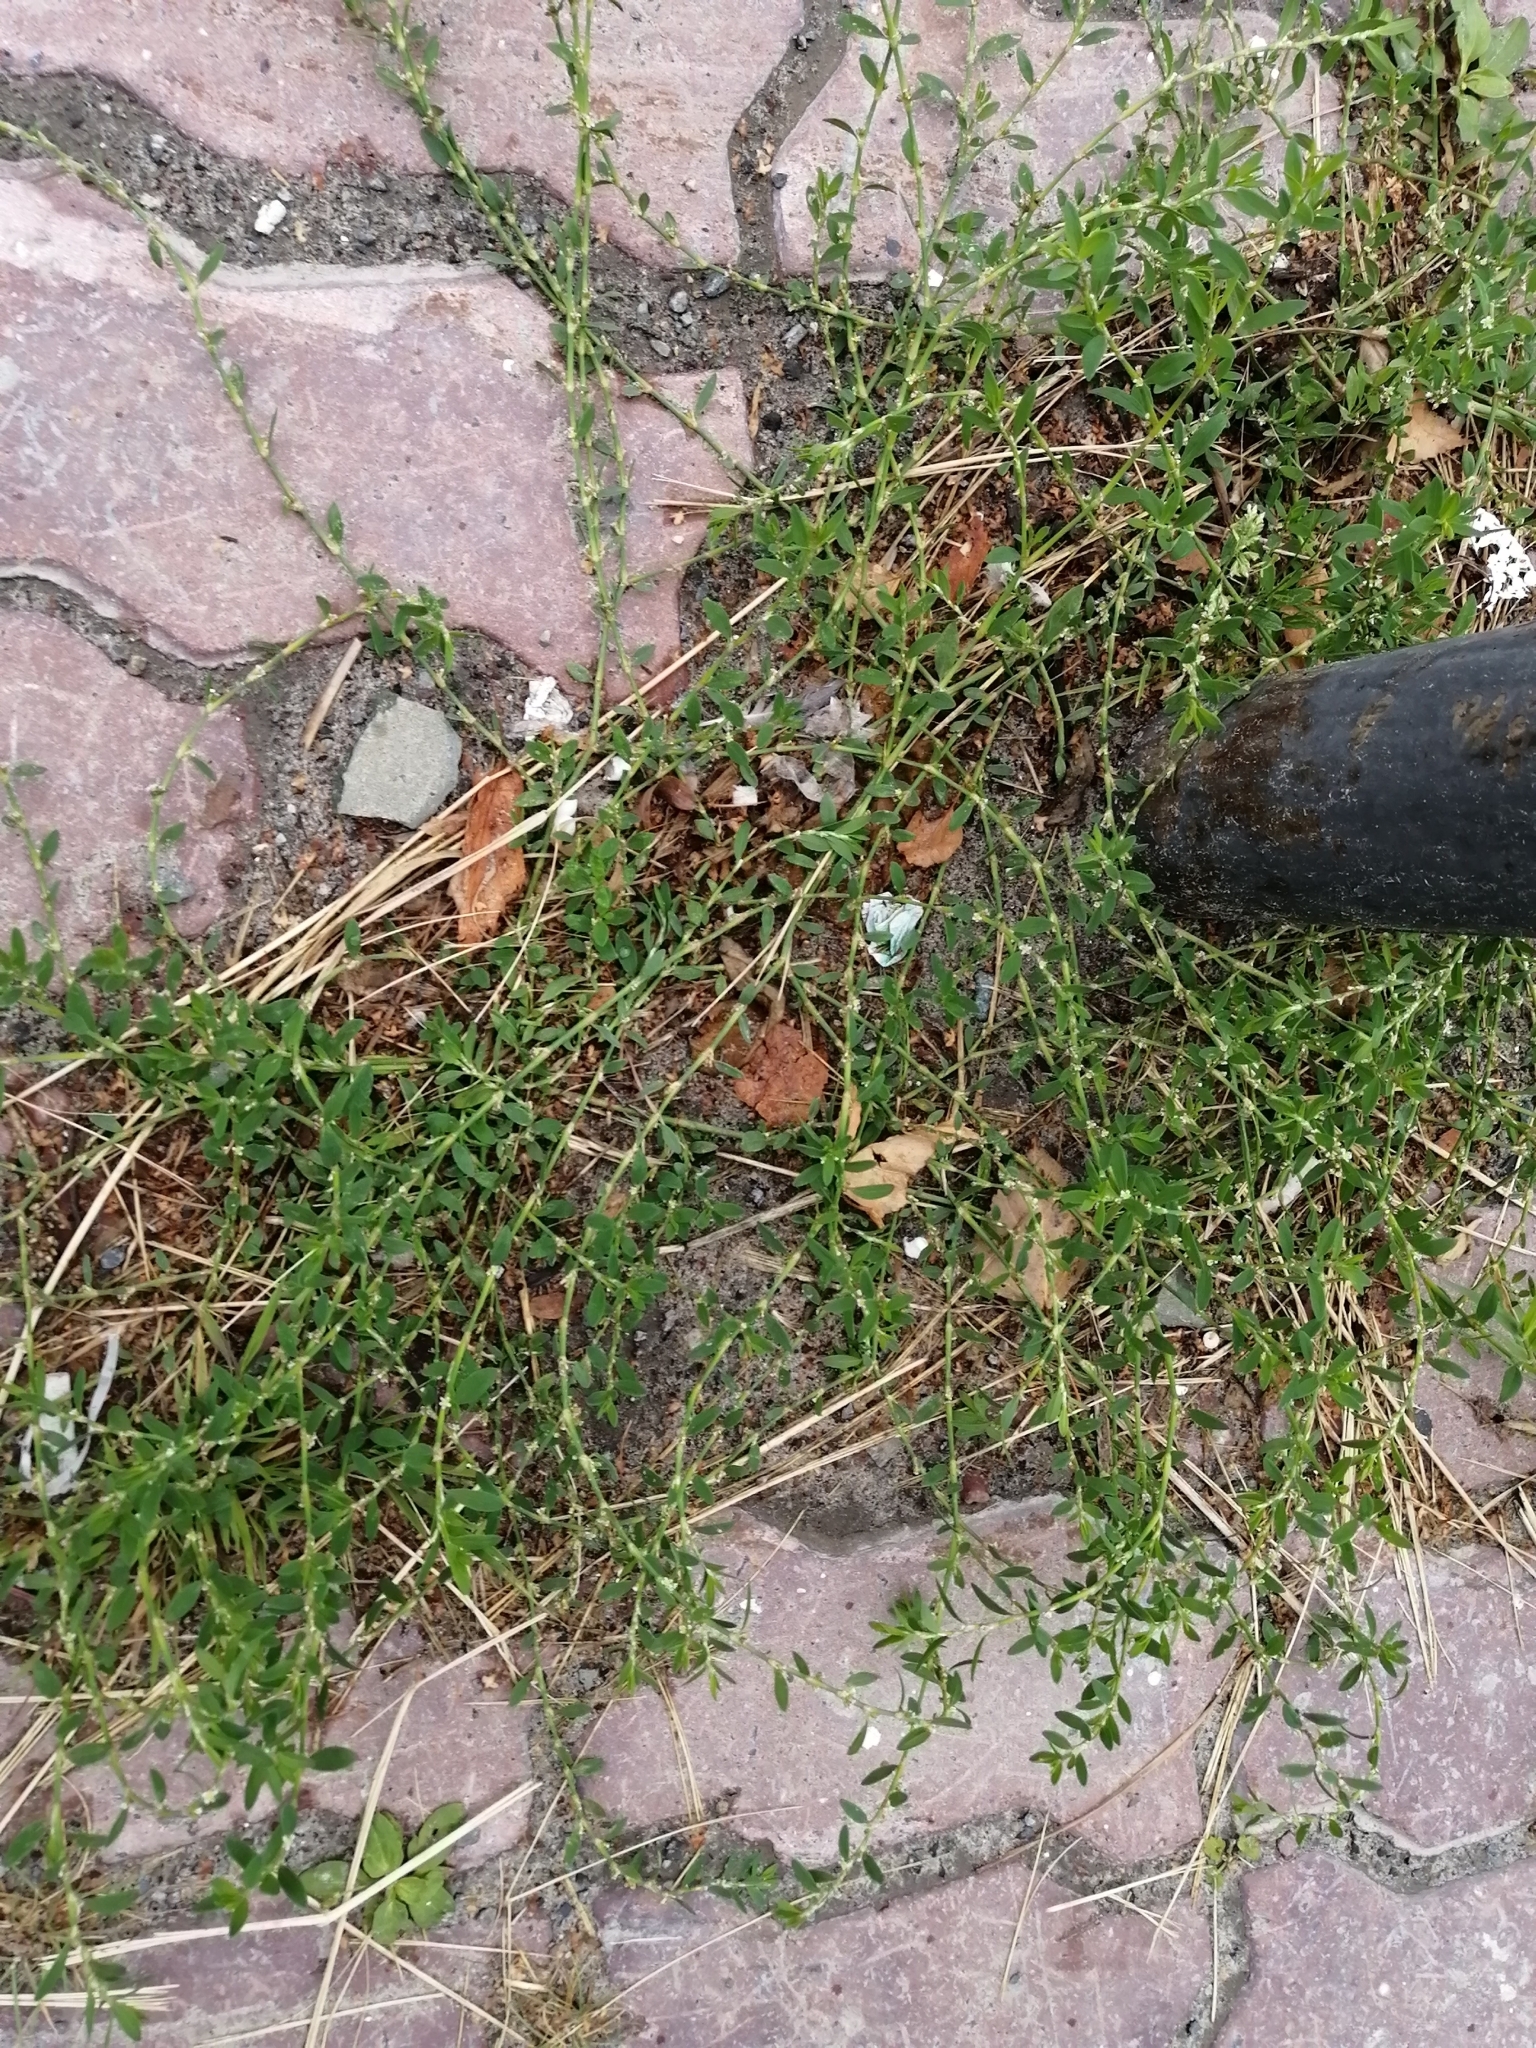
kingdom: Plantae
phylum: Tracheophyta
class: Magnoliopsida
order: Caryophyllales
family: Polygonaceae
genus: Polygonum
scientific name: Polygonum
